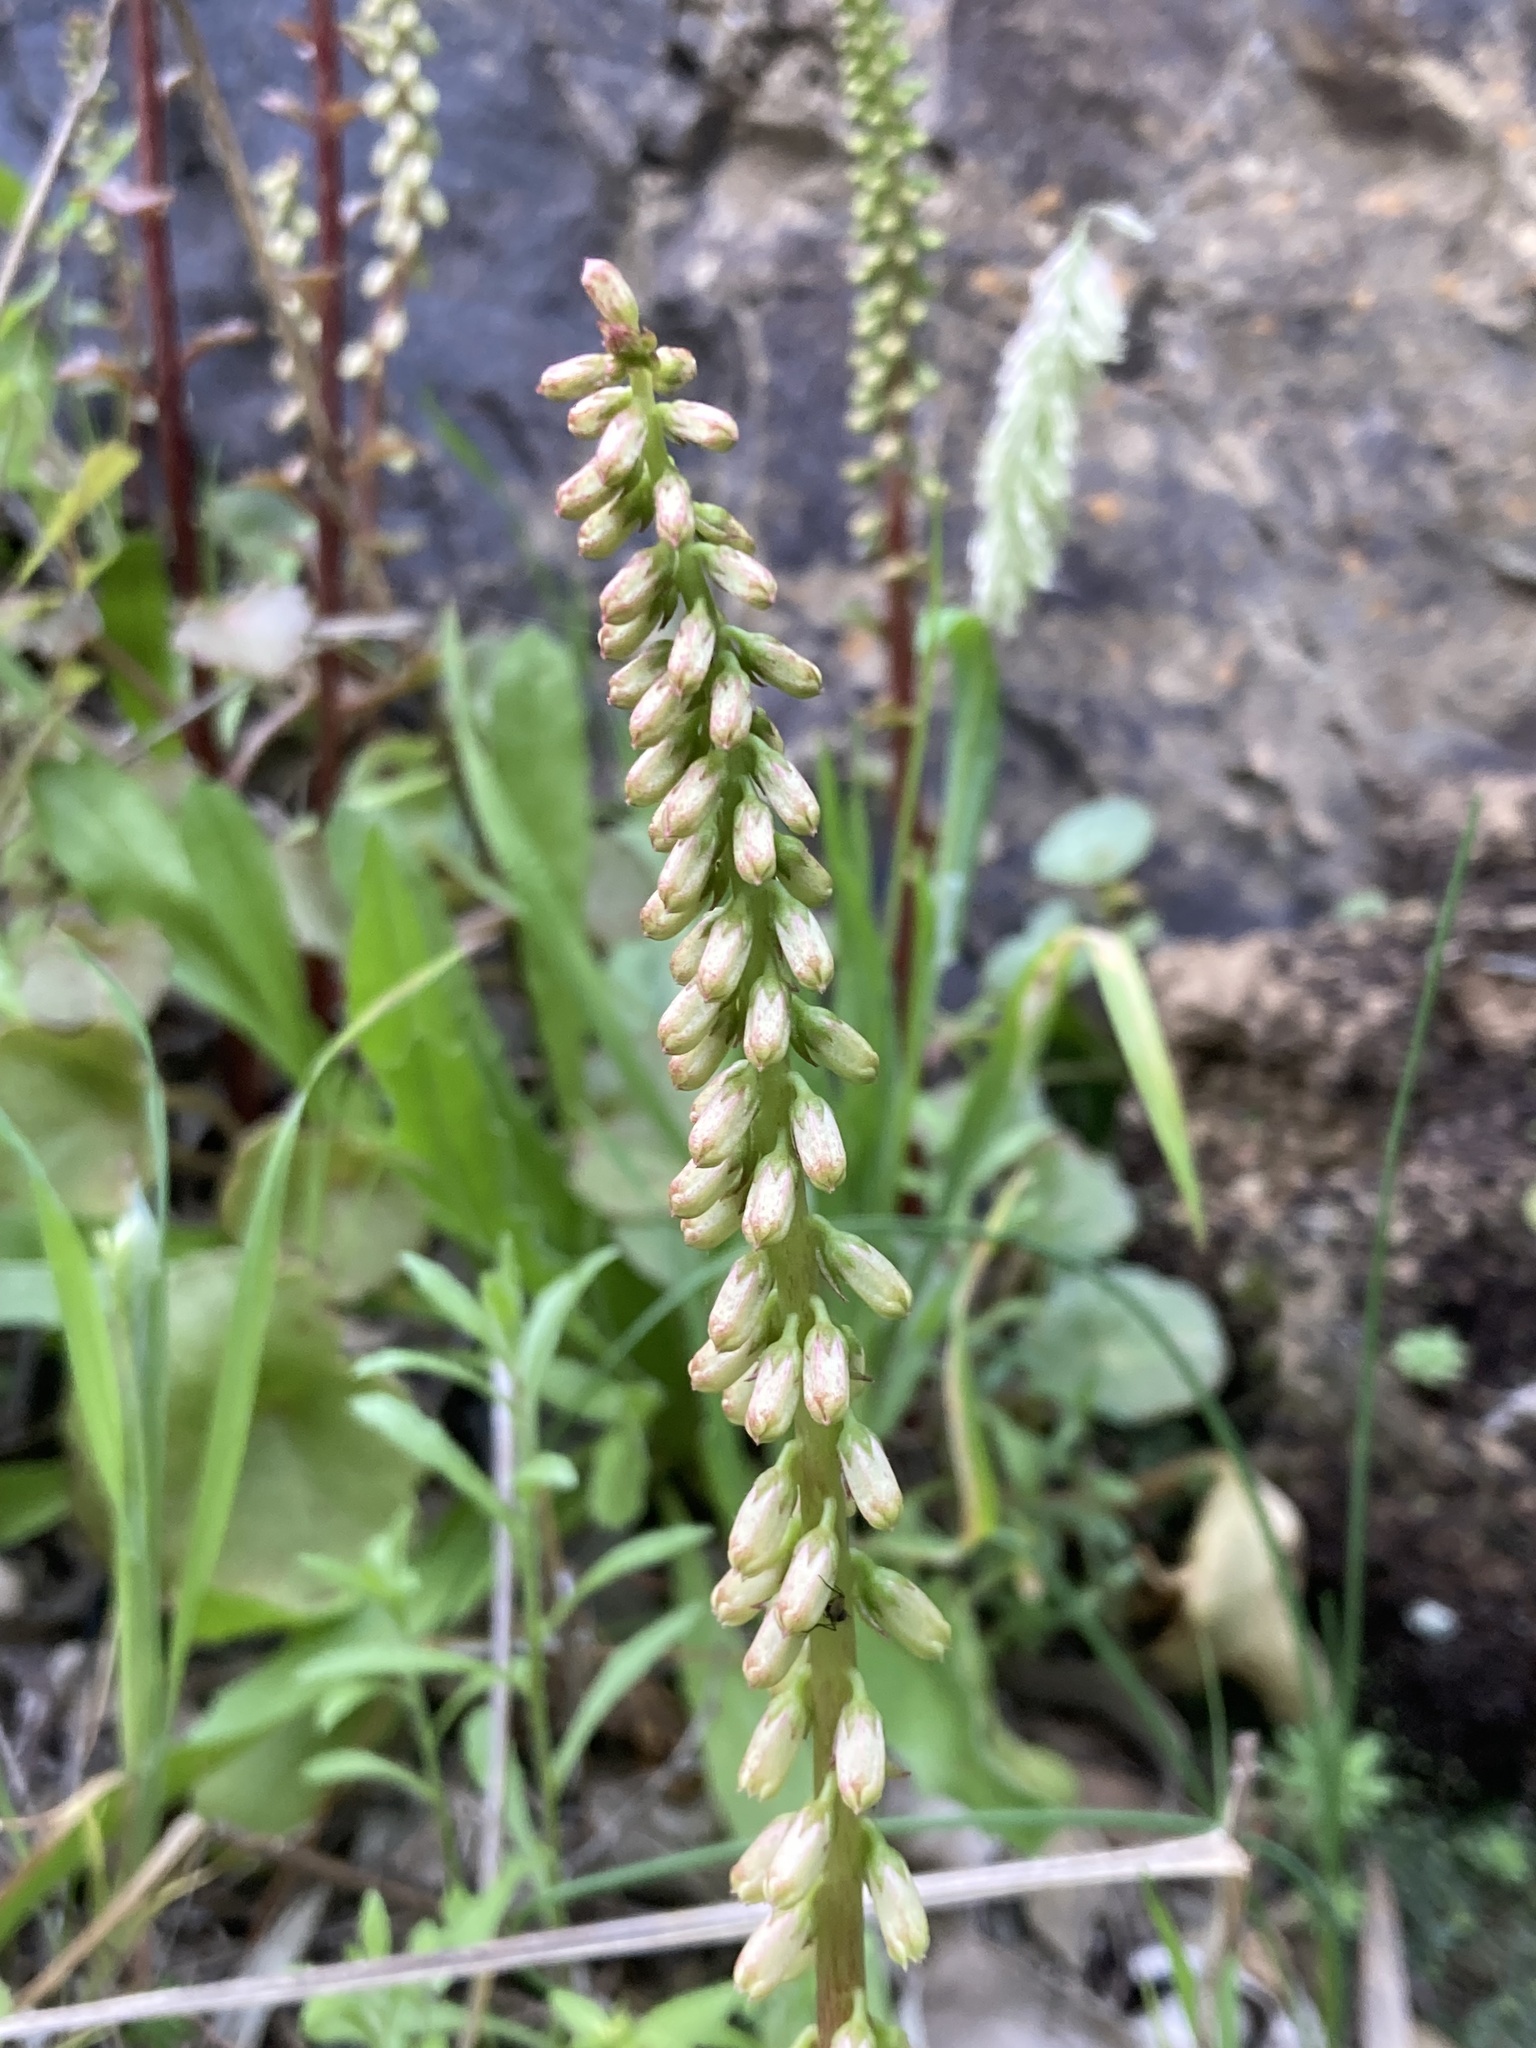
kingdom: Plantae
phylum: Tracheophyta
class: Magnoliopsida
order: Saxifragales
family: Crassulaceae
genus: Umbilicus
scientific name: Umbilicus rupestris
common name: Navelwort
